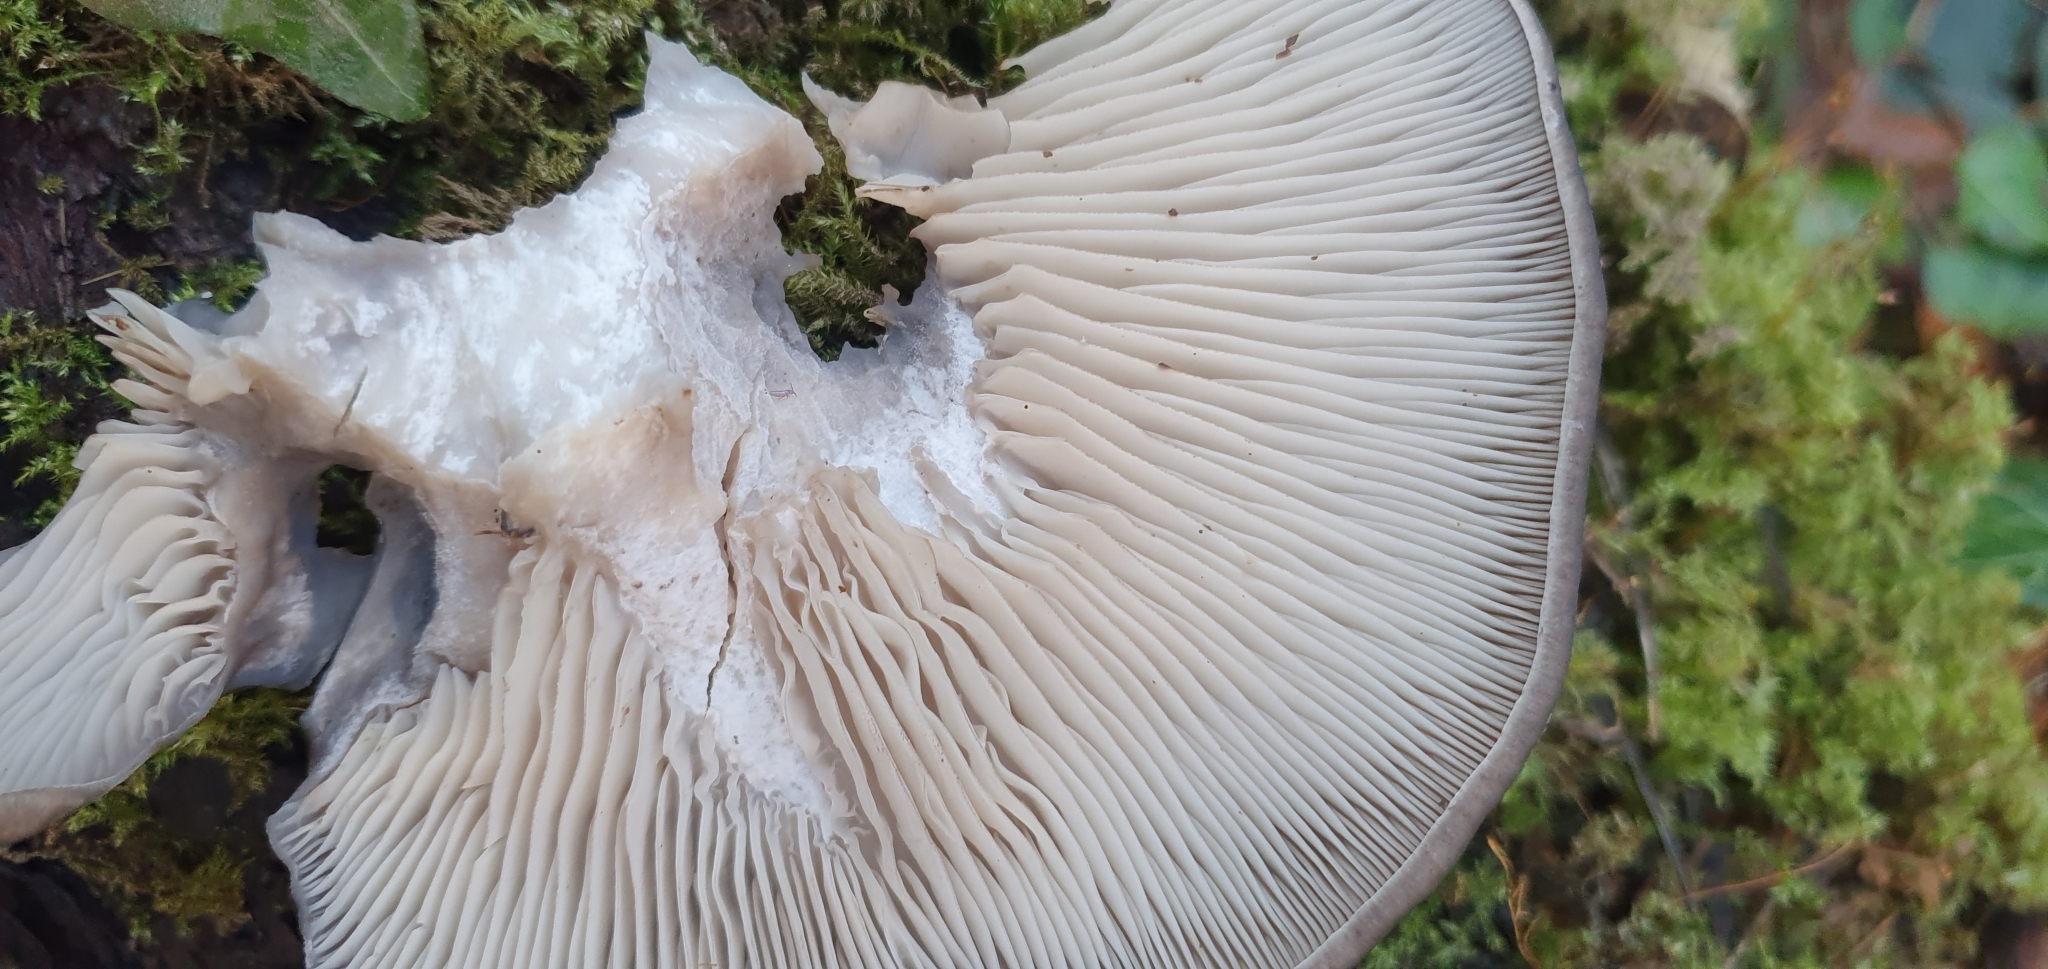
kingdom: Fungi
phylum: Basidiomycota
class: Agaricomycetes
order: Agaricales
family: Pleurotaceae
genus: Pleurotus
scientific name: Pleurotus ostreatus
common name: Oyster mushroom
